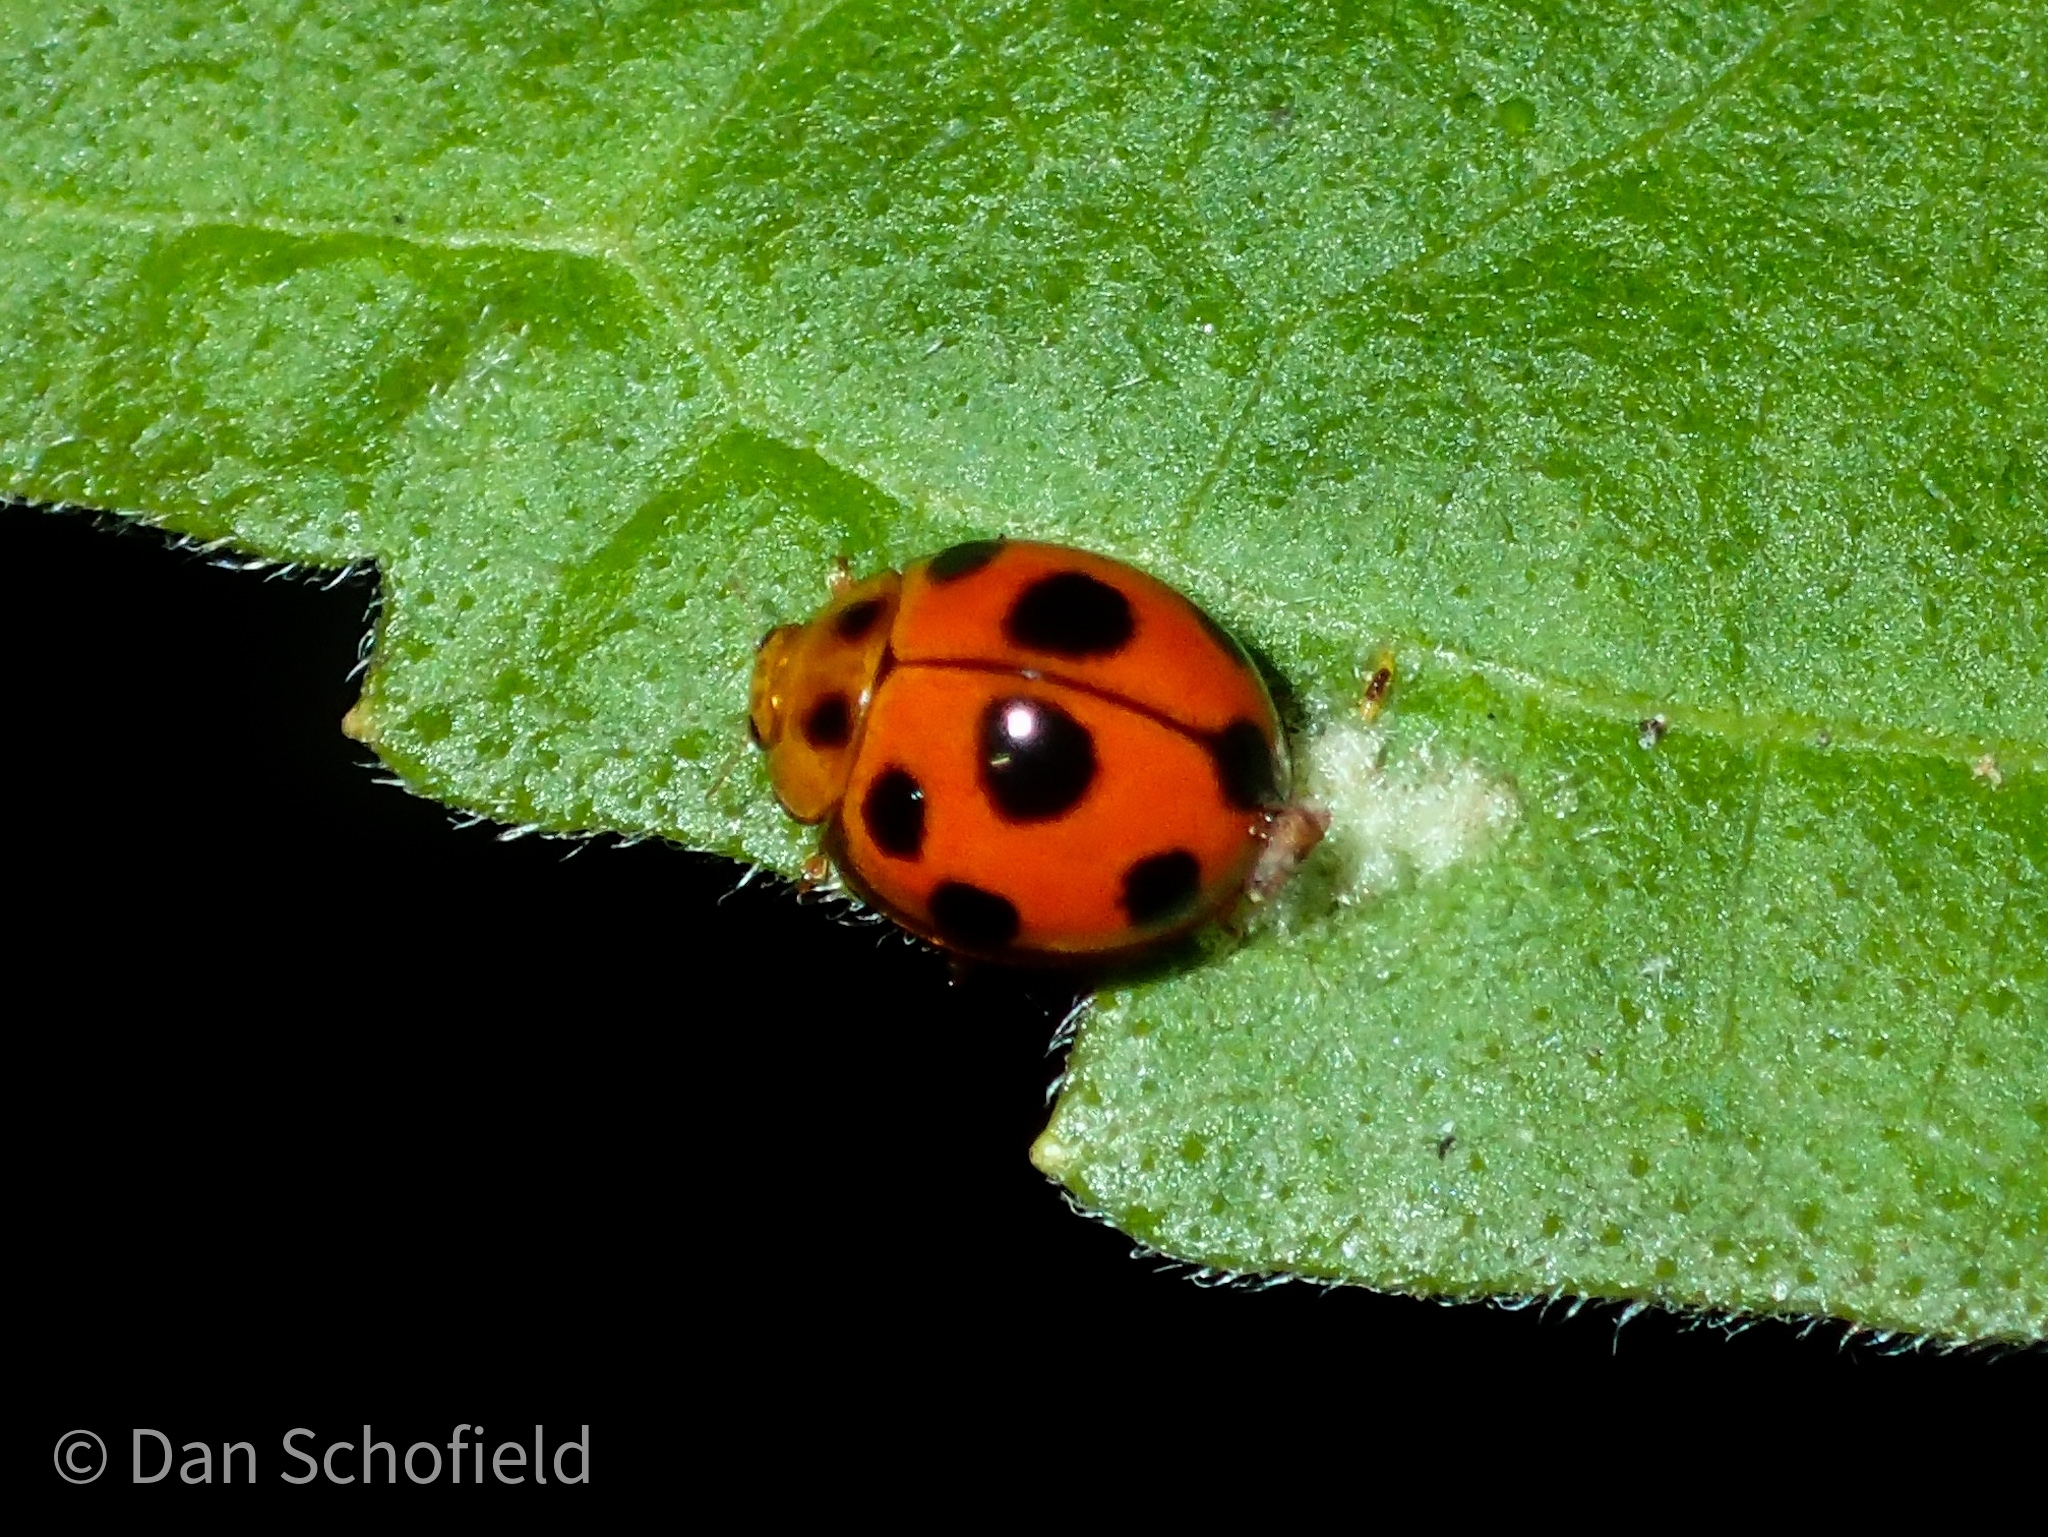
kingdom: Animalia
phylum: Arthropoda
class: Insecta
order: Coleoptera
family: Coccinellidae
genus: Coelophora
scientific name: Coelophora inaequalis
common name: Common australian lady beetle
